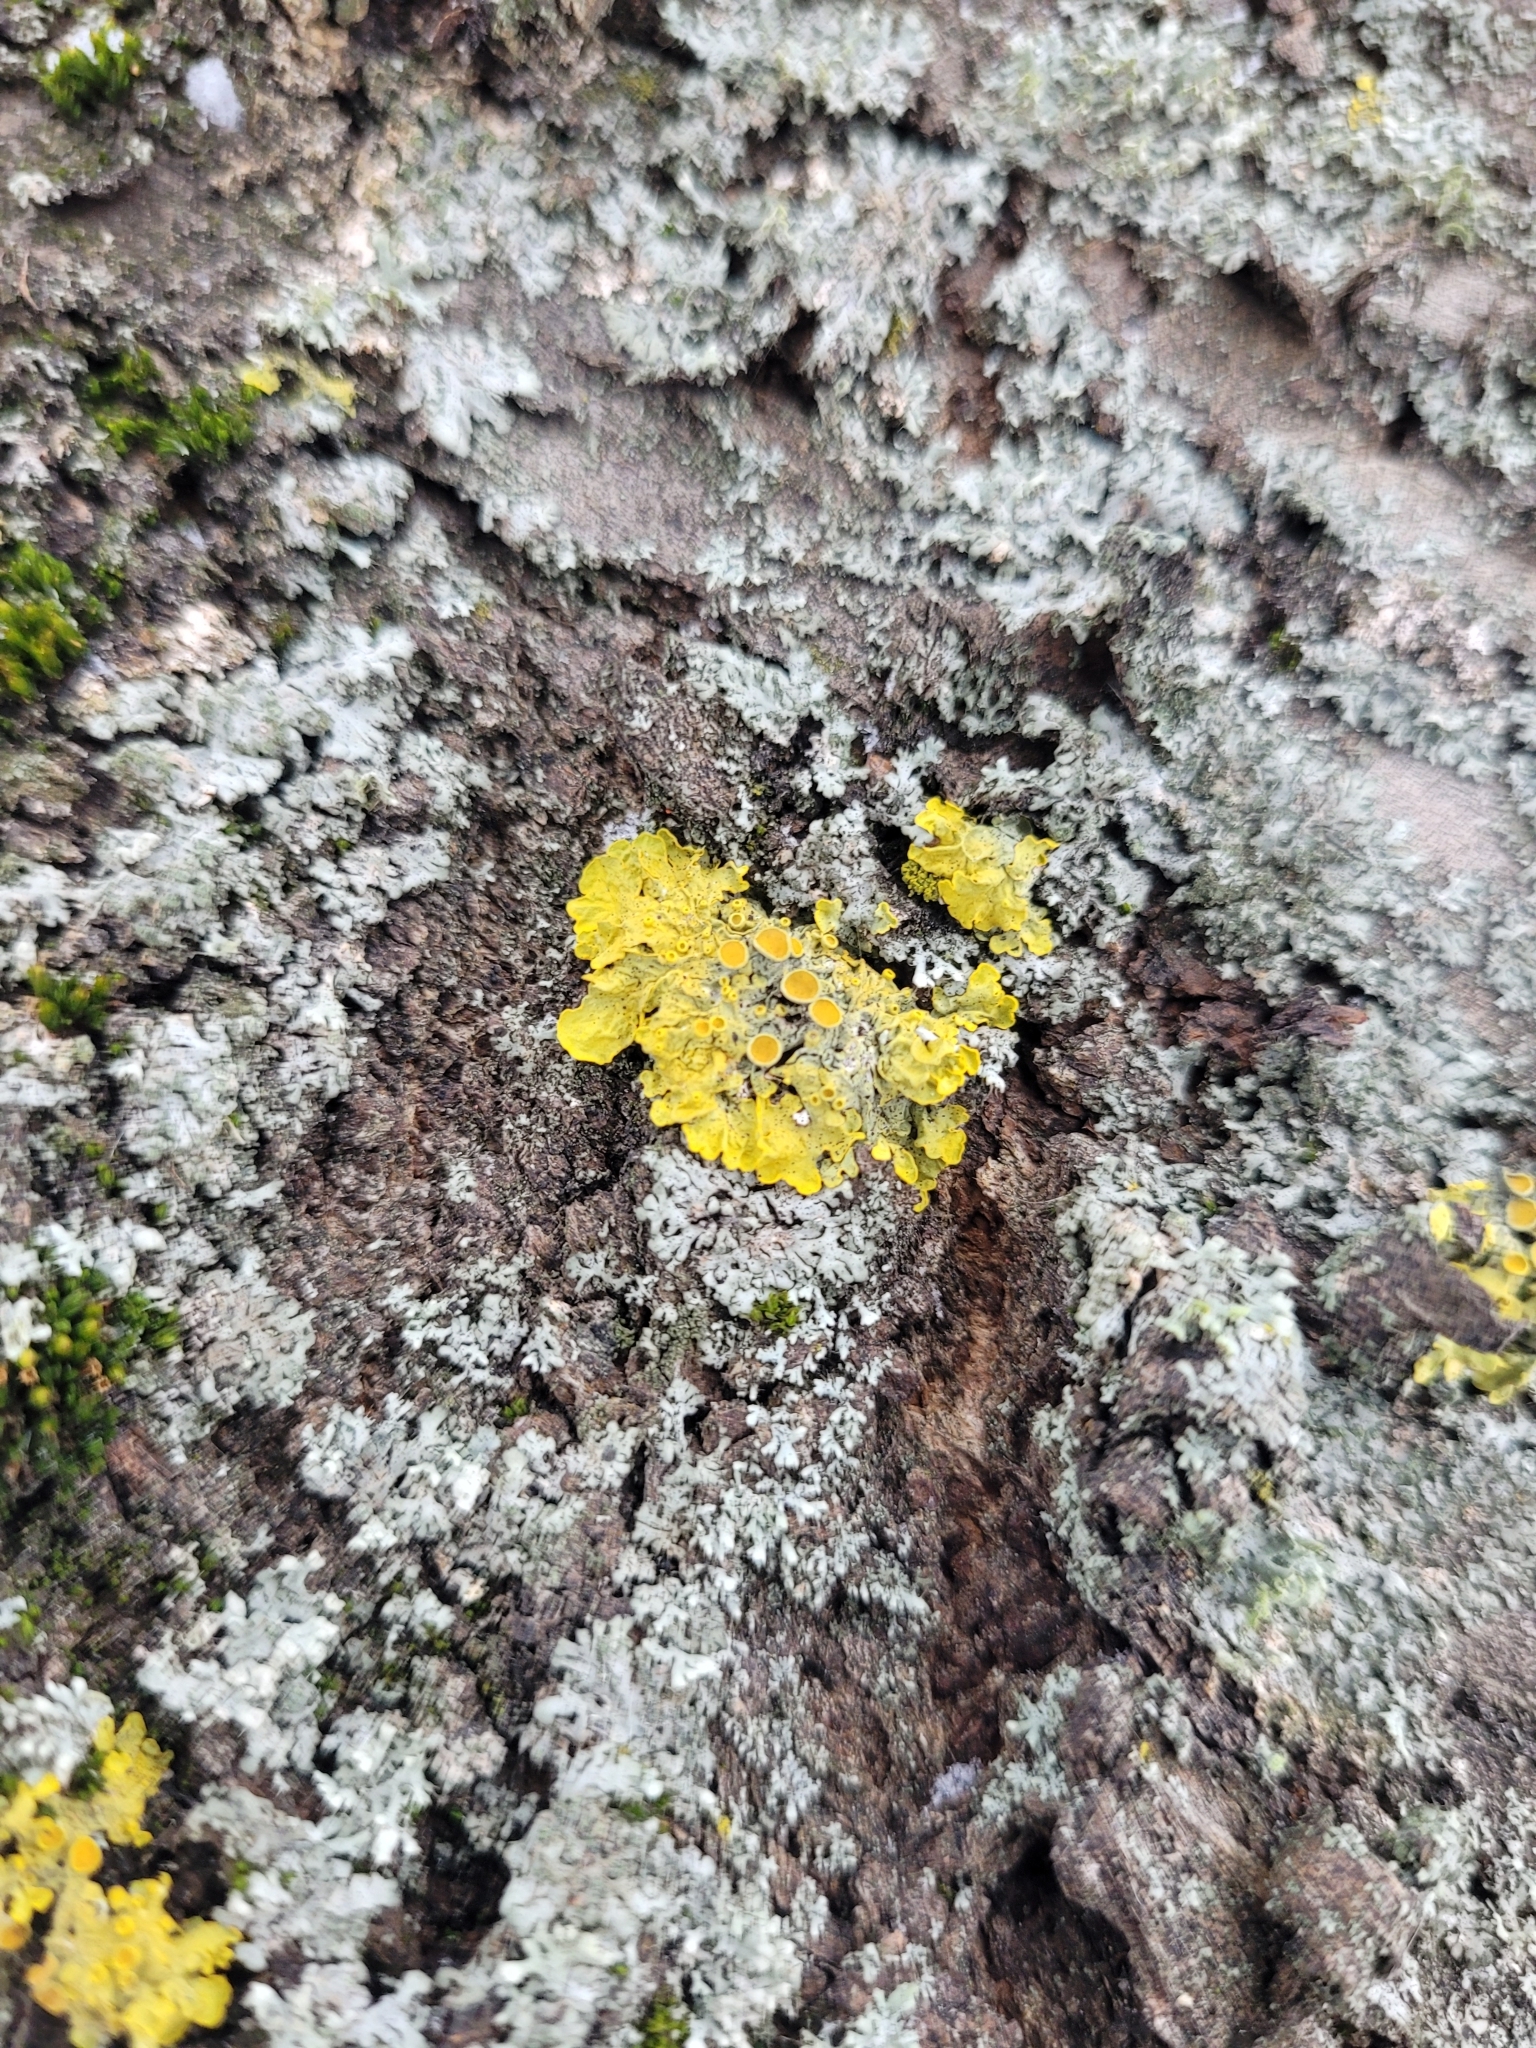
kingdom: Fungi
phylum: Ascomycota
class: Lecanoromycetes
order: Teloschistales
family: Teloschistaceae
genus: Xanthoria
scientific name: Xanthoria parietina
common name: Common orange lichen
